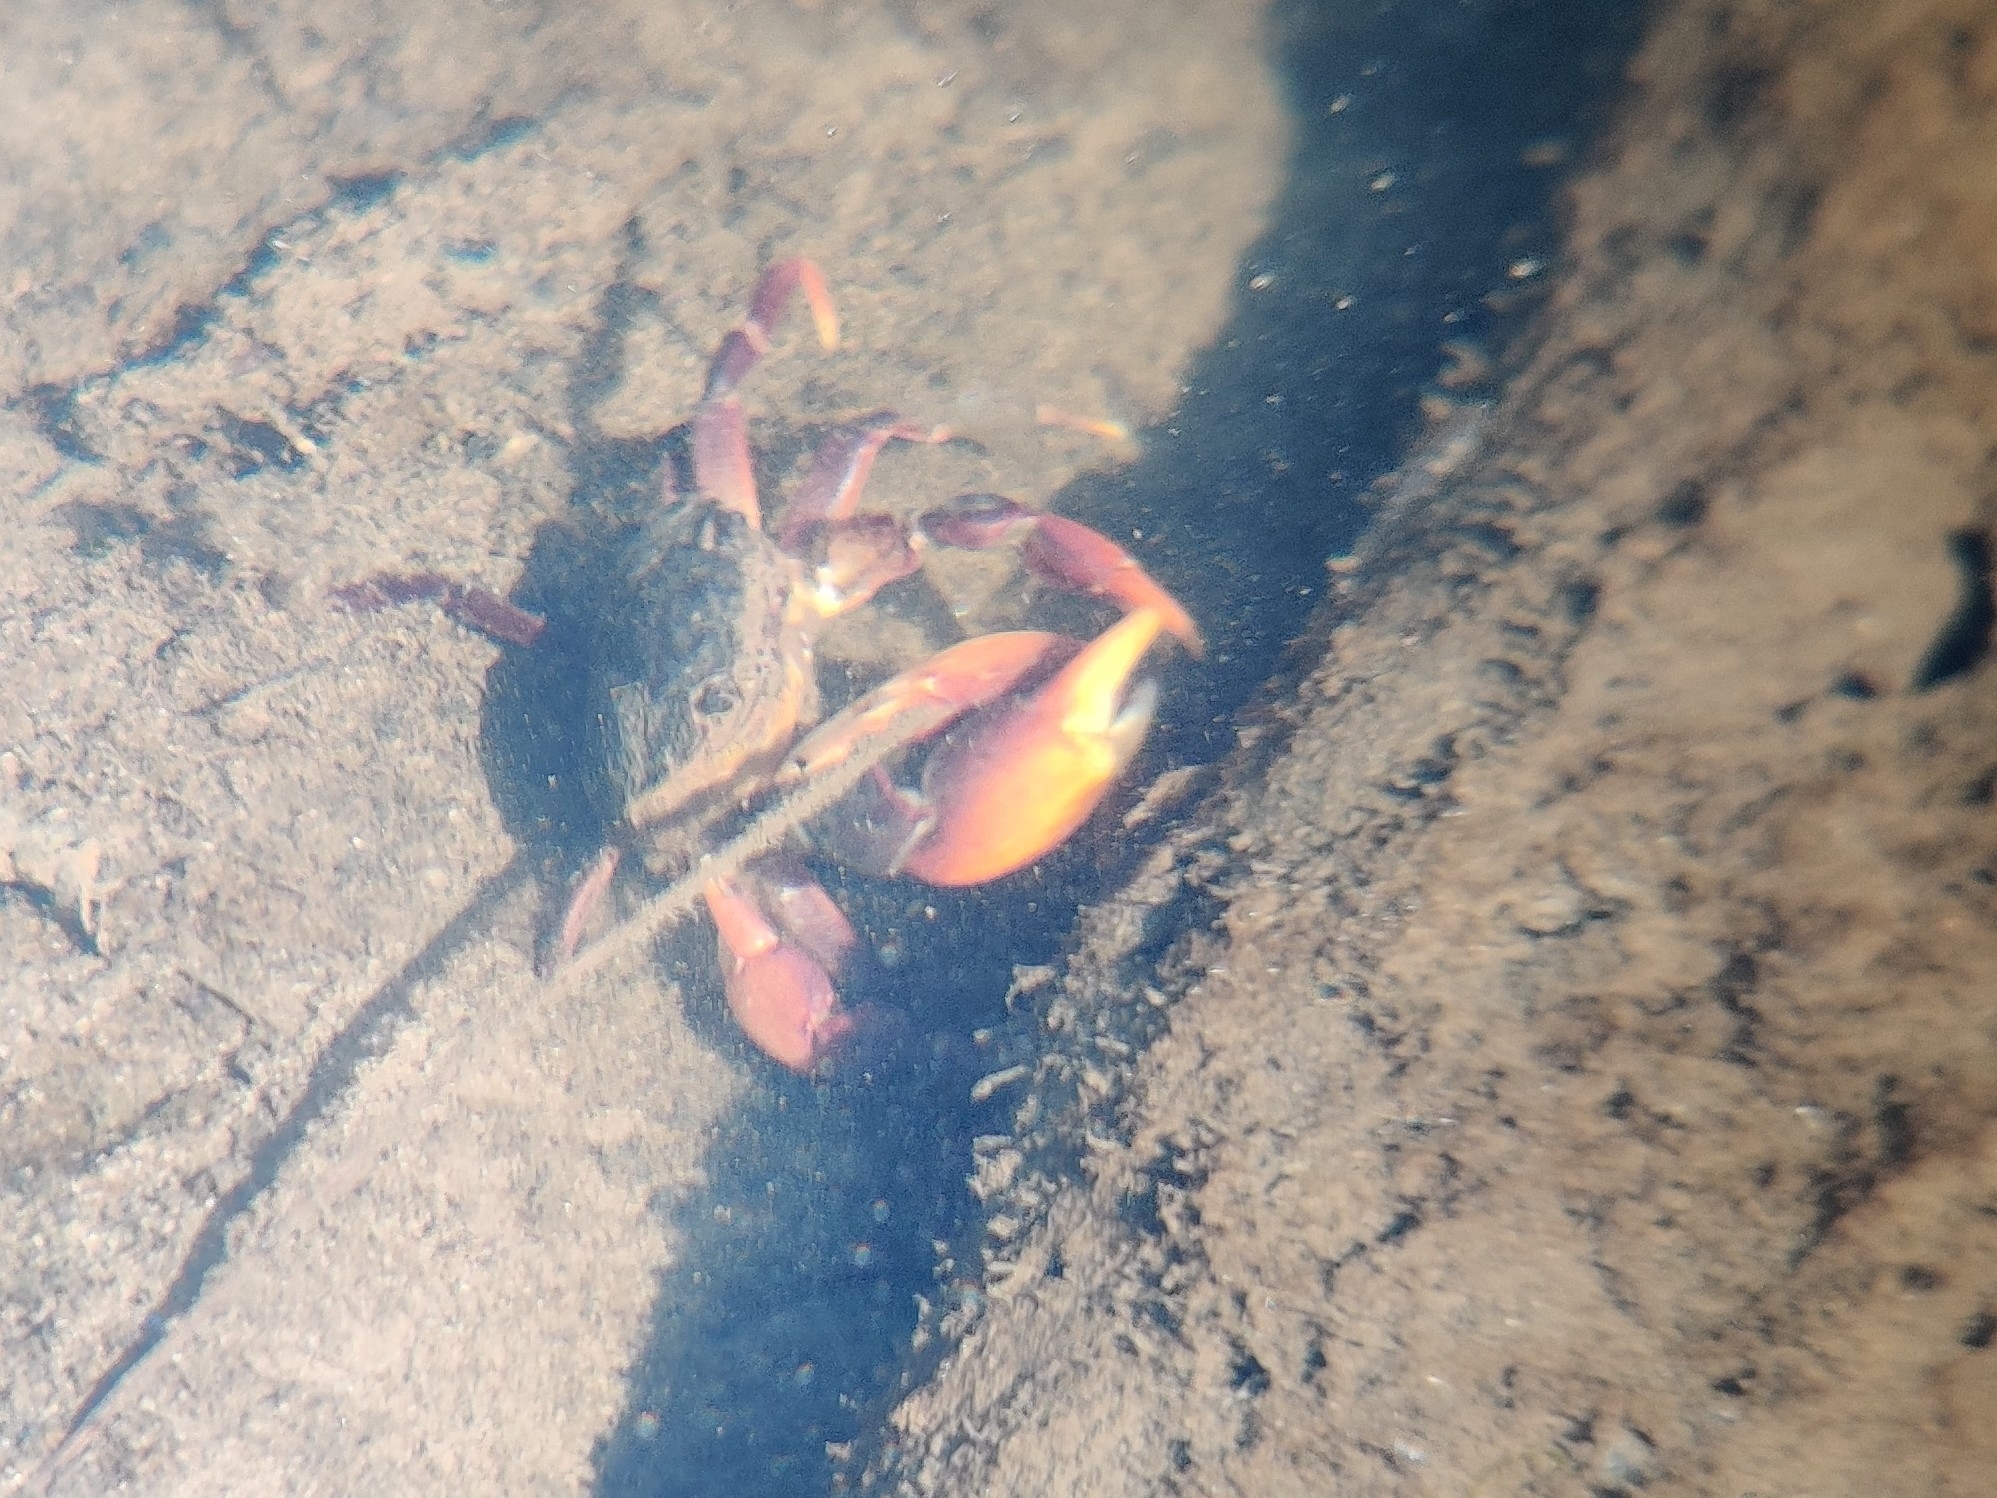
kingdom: Animalia
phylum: Arthropoda
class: Malacostraca
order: Decapoda
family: Varunidae
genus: Paragrapsus
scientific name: Paragrapsus laevis
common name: Smooth shore crab
